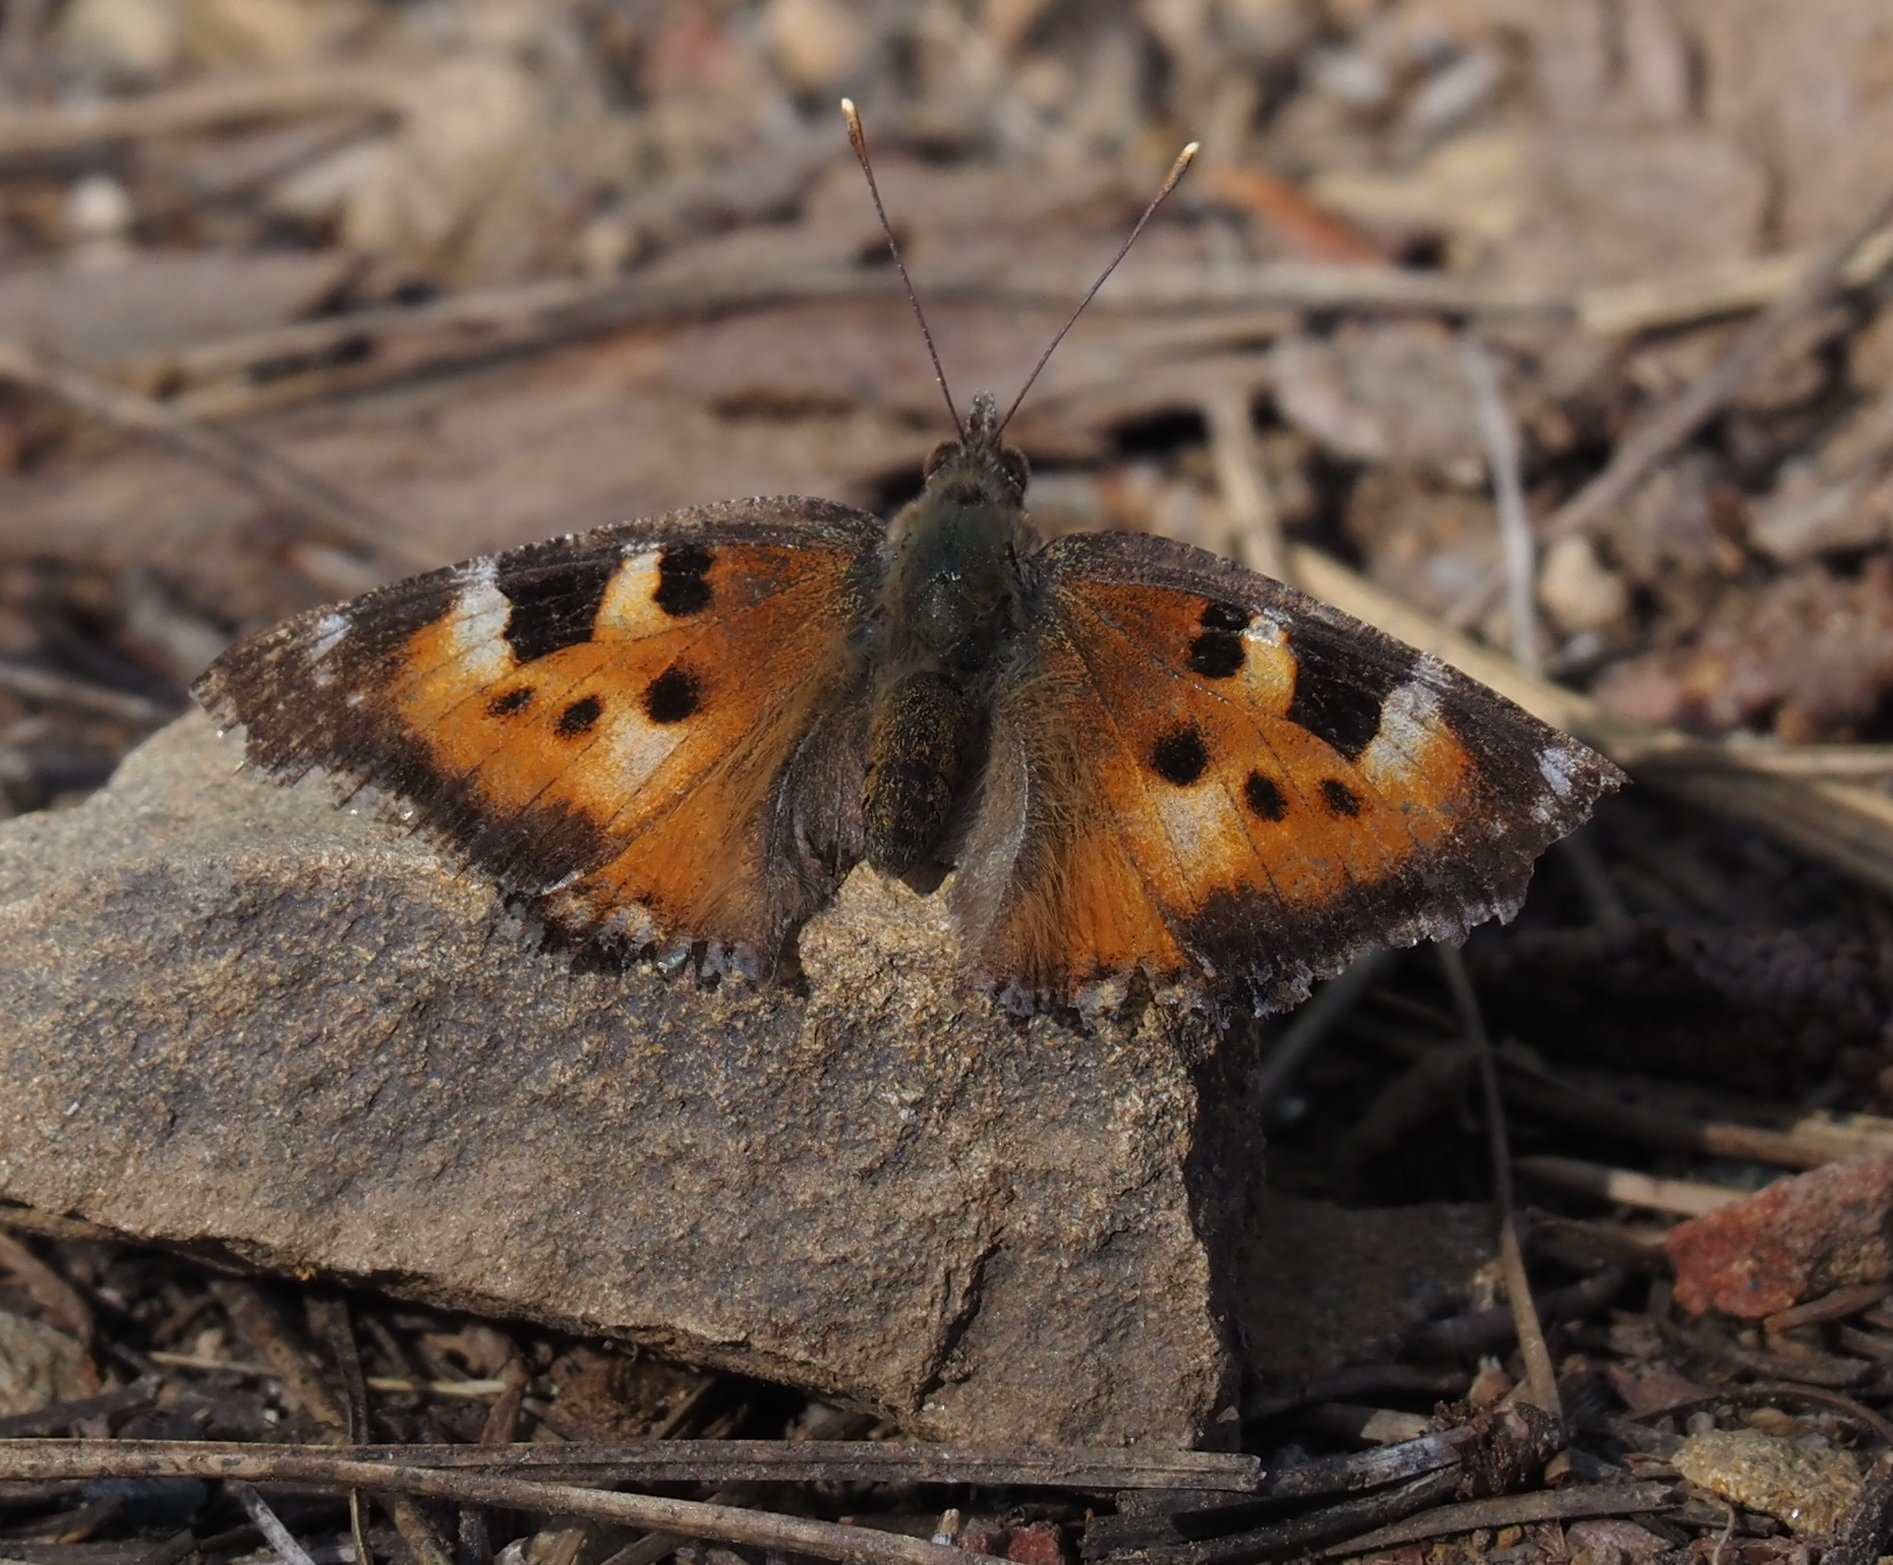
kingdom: Animalia
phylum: Arthropoda
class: Insecta
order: Lepidoptera
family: Nymphalidae
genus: Nymphalis
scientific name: Nymphalis californica
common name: California tortoiseshell
